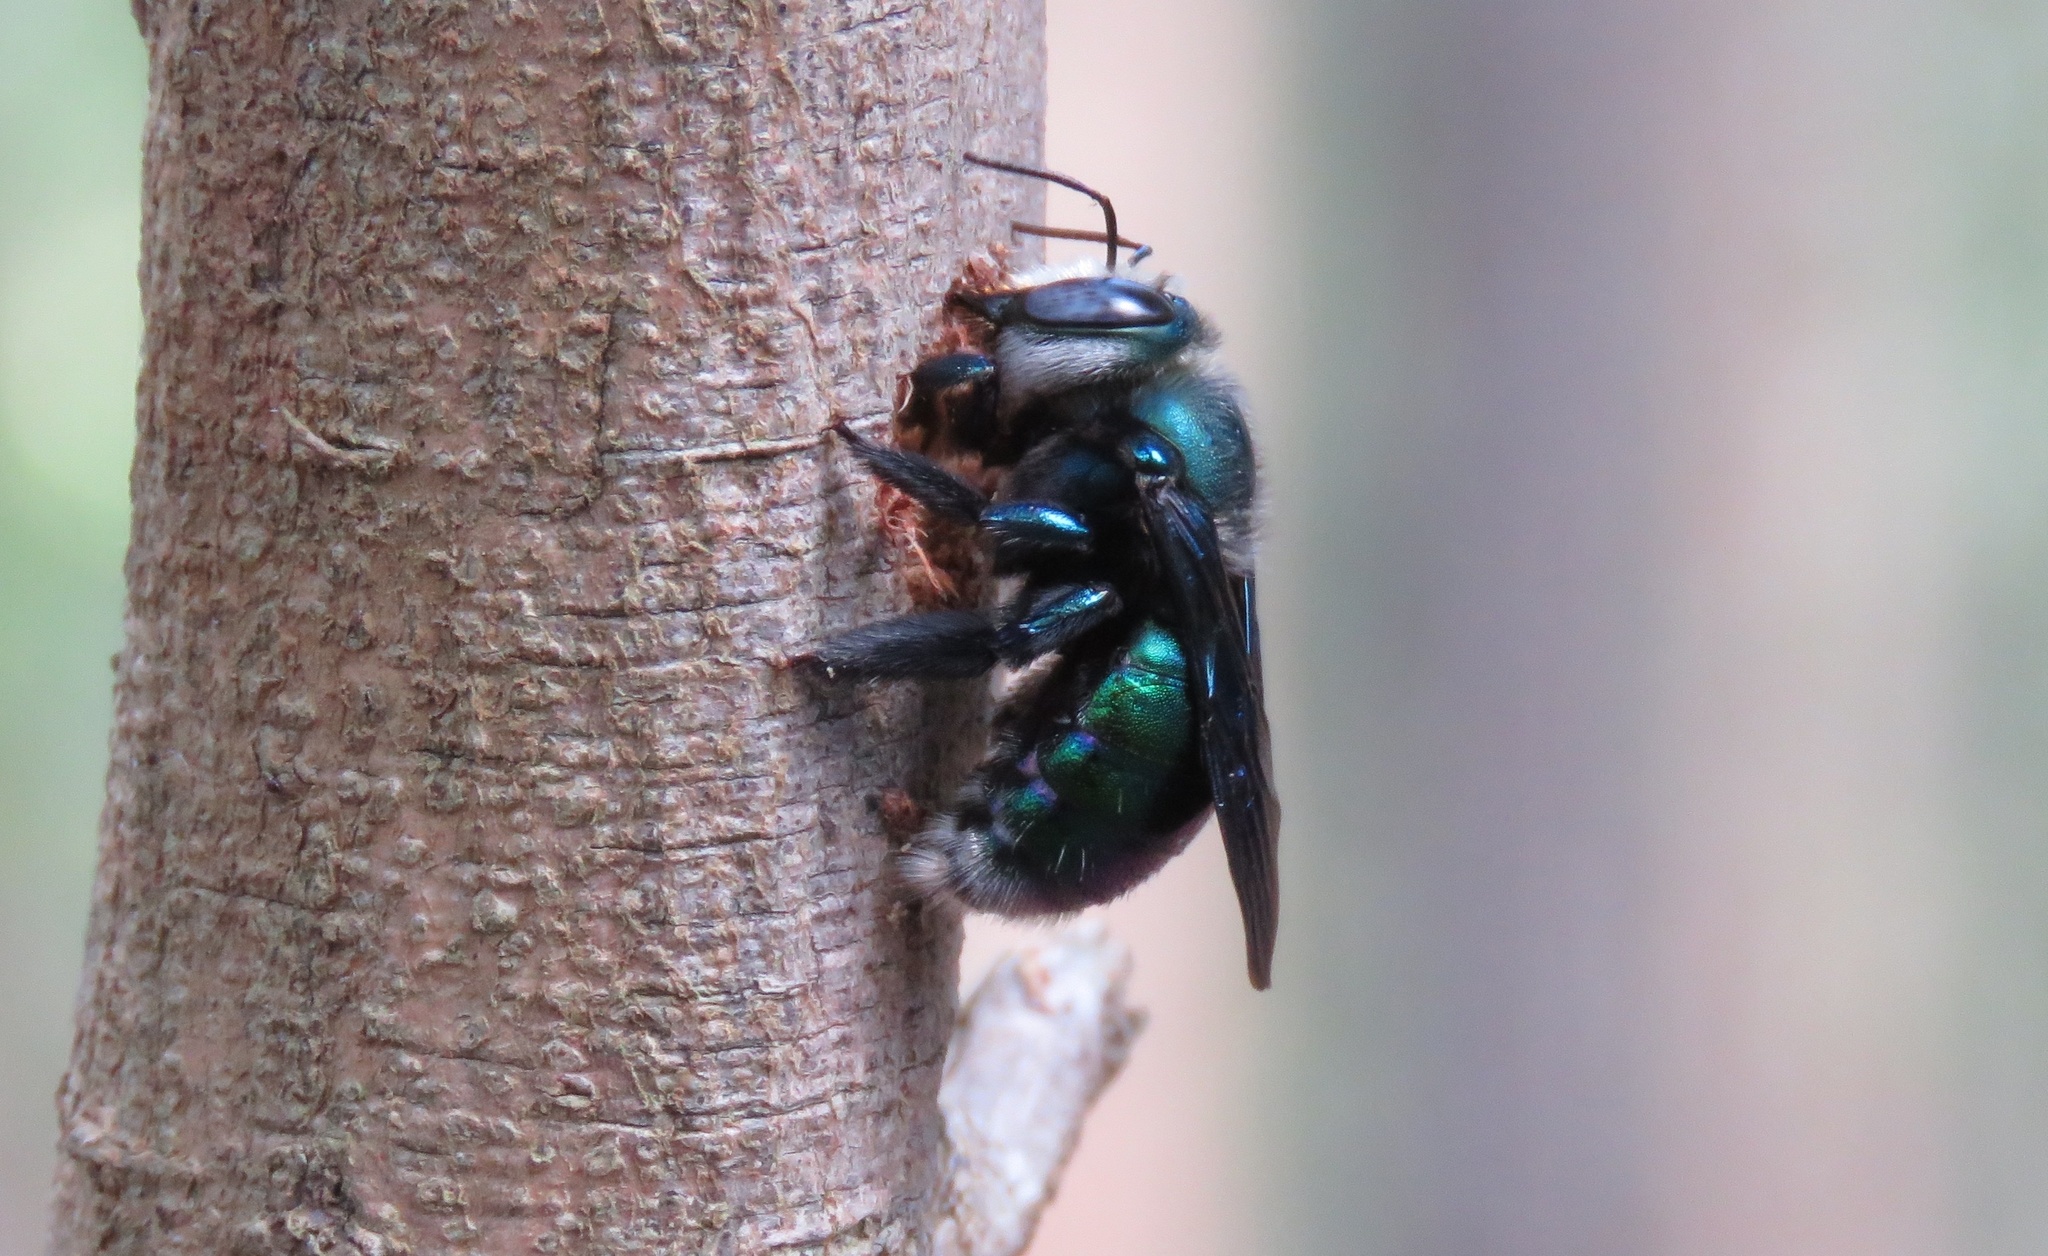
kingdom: Animalia
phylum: Arthropoda
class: Insecta
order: Hymenoptera
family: Apidae
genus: Xylocopa
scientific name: Xylocopa bombylans
